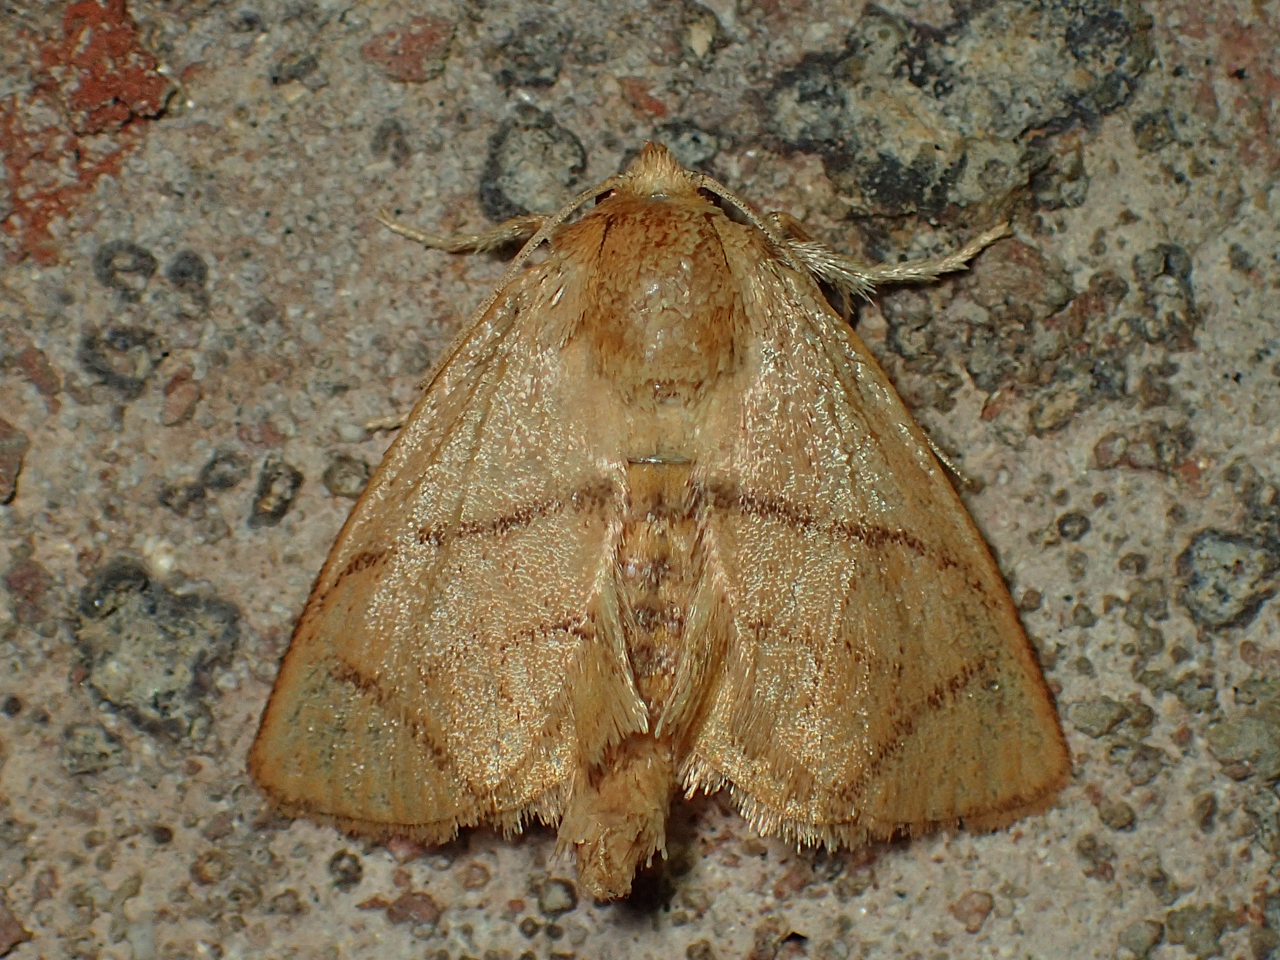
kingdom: Animalia
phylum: Arthropoda
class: Insecta
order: Lepidoptera
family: Limacodidae
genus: Apoda
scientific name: Apoda y-inversa
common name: Yellow-collared slug moth
